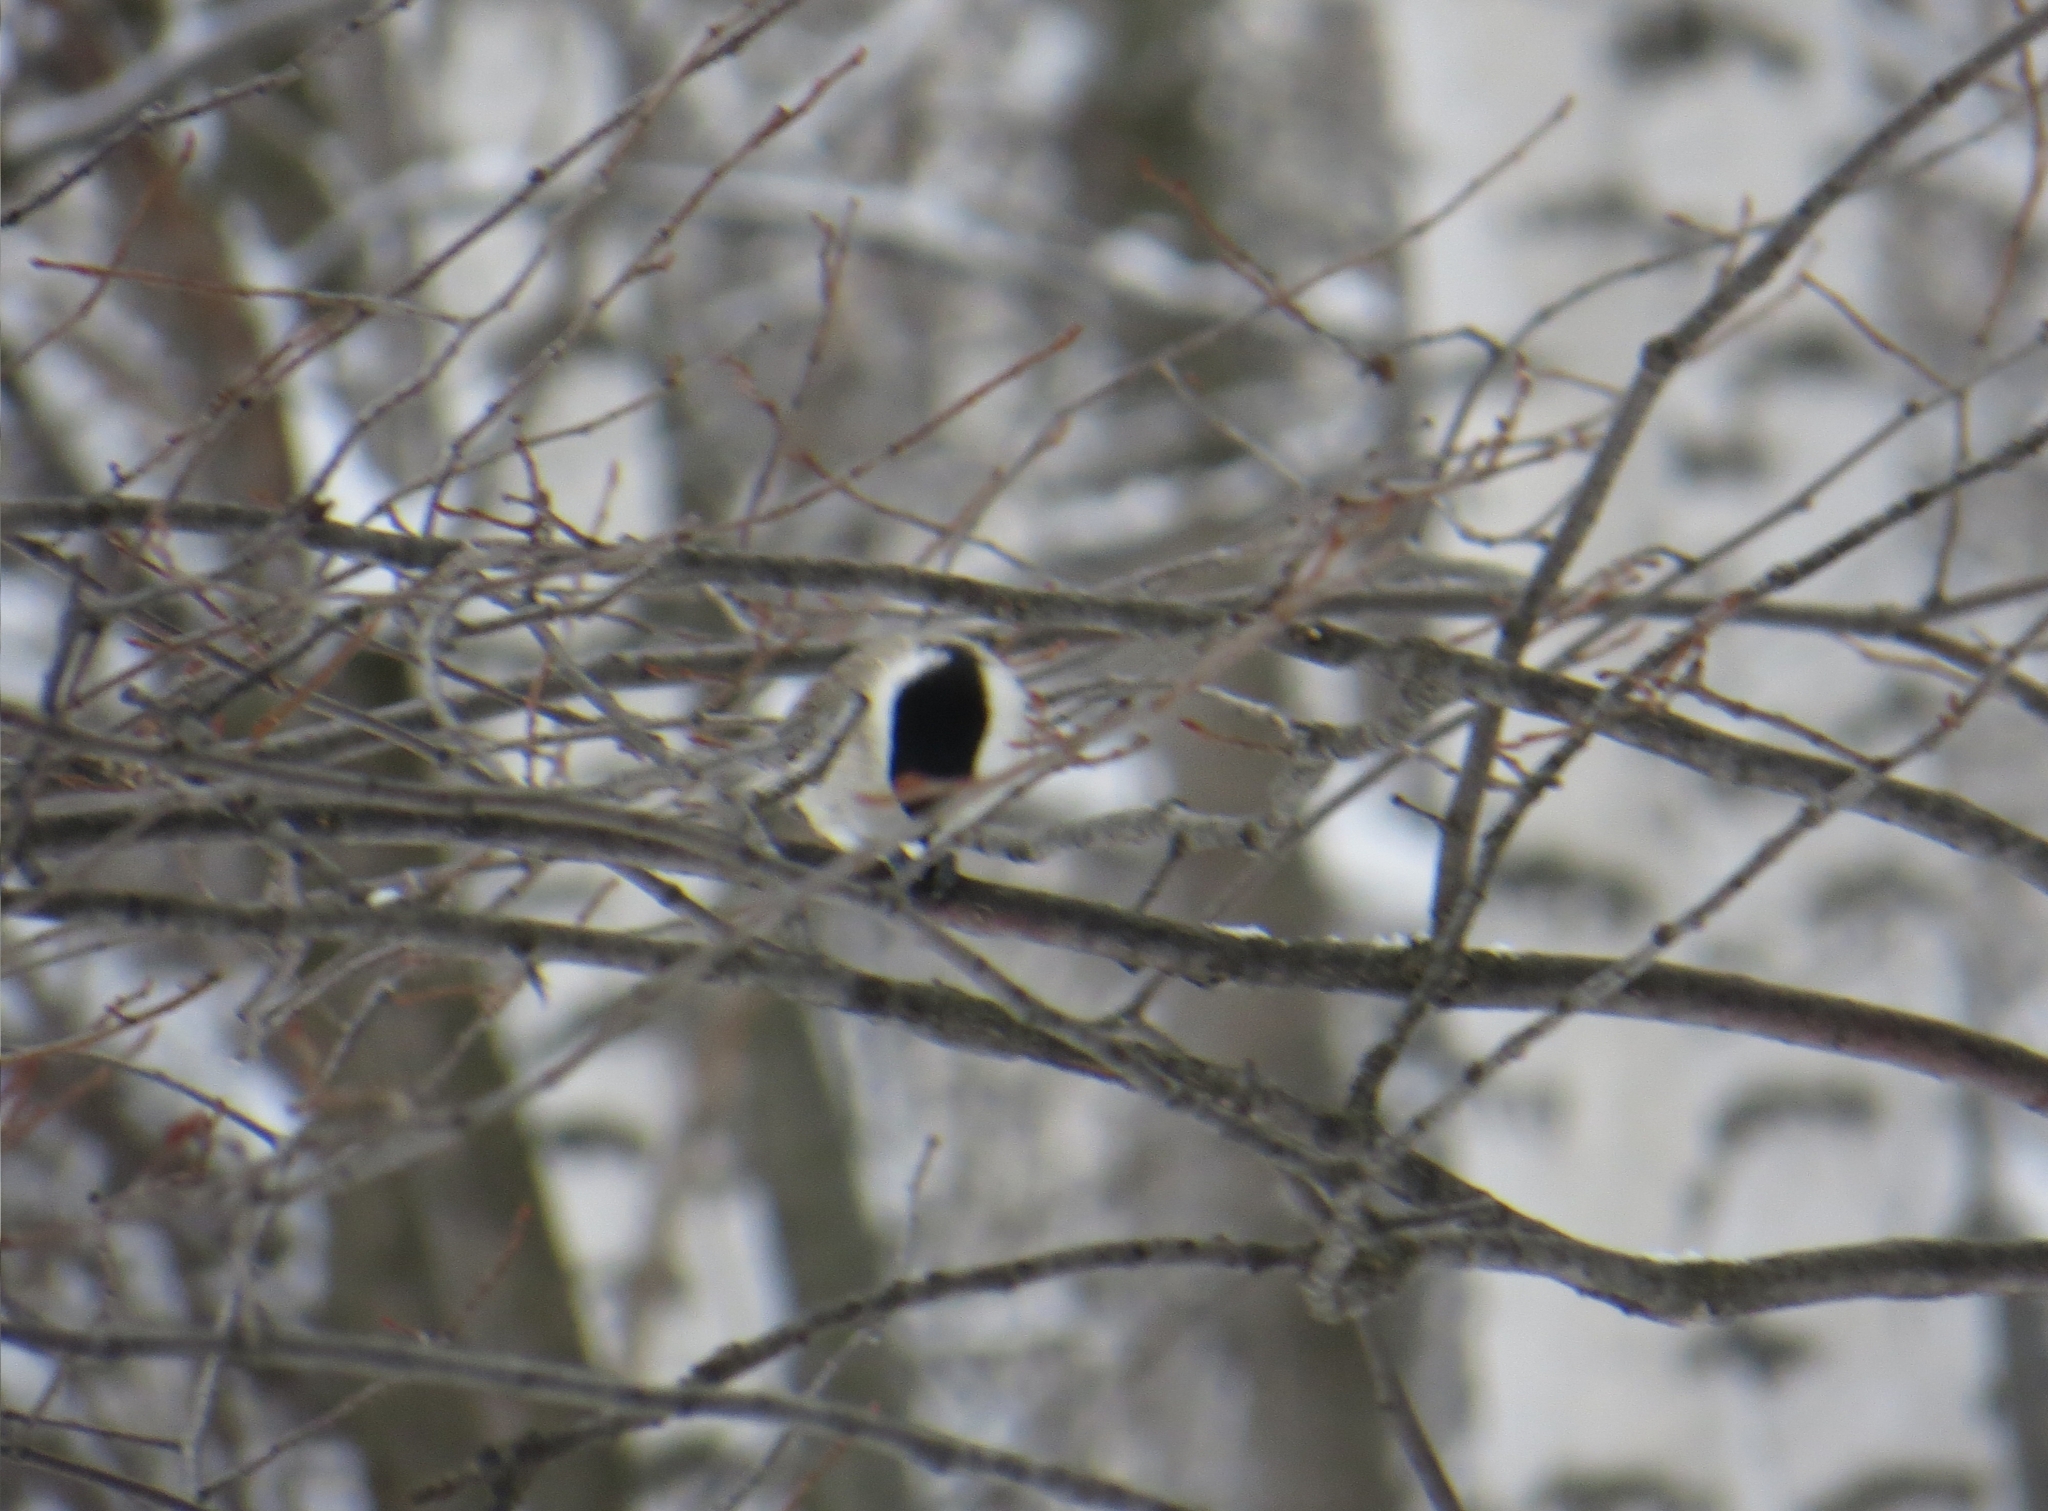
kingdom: Animalia
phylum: Chordata
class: Aves
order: Passeriformes
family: Paridae
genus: Poecile
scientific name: Poecile palustris
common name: Marsh tit
